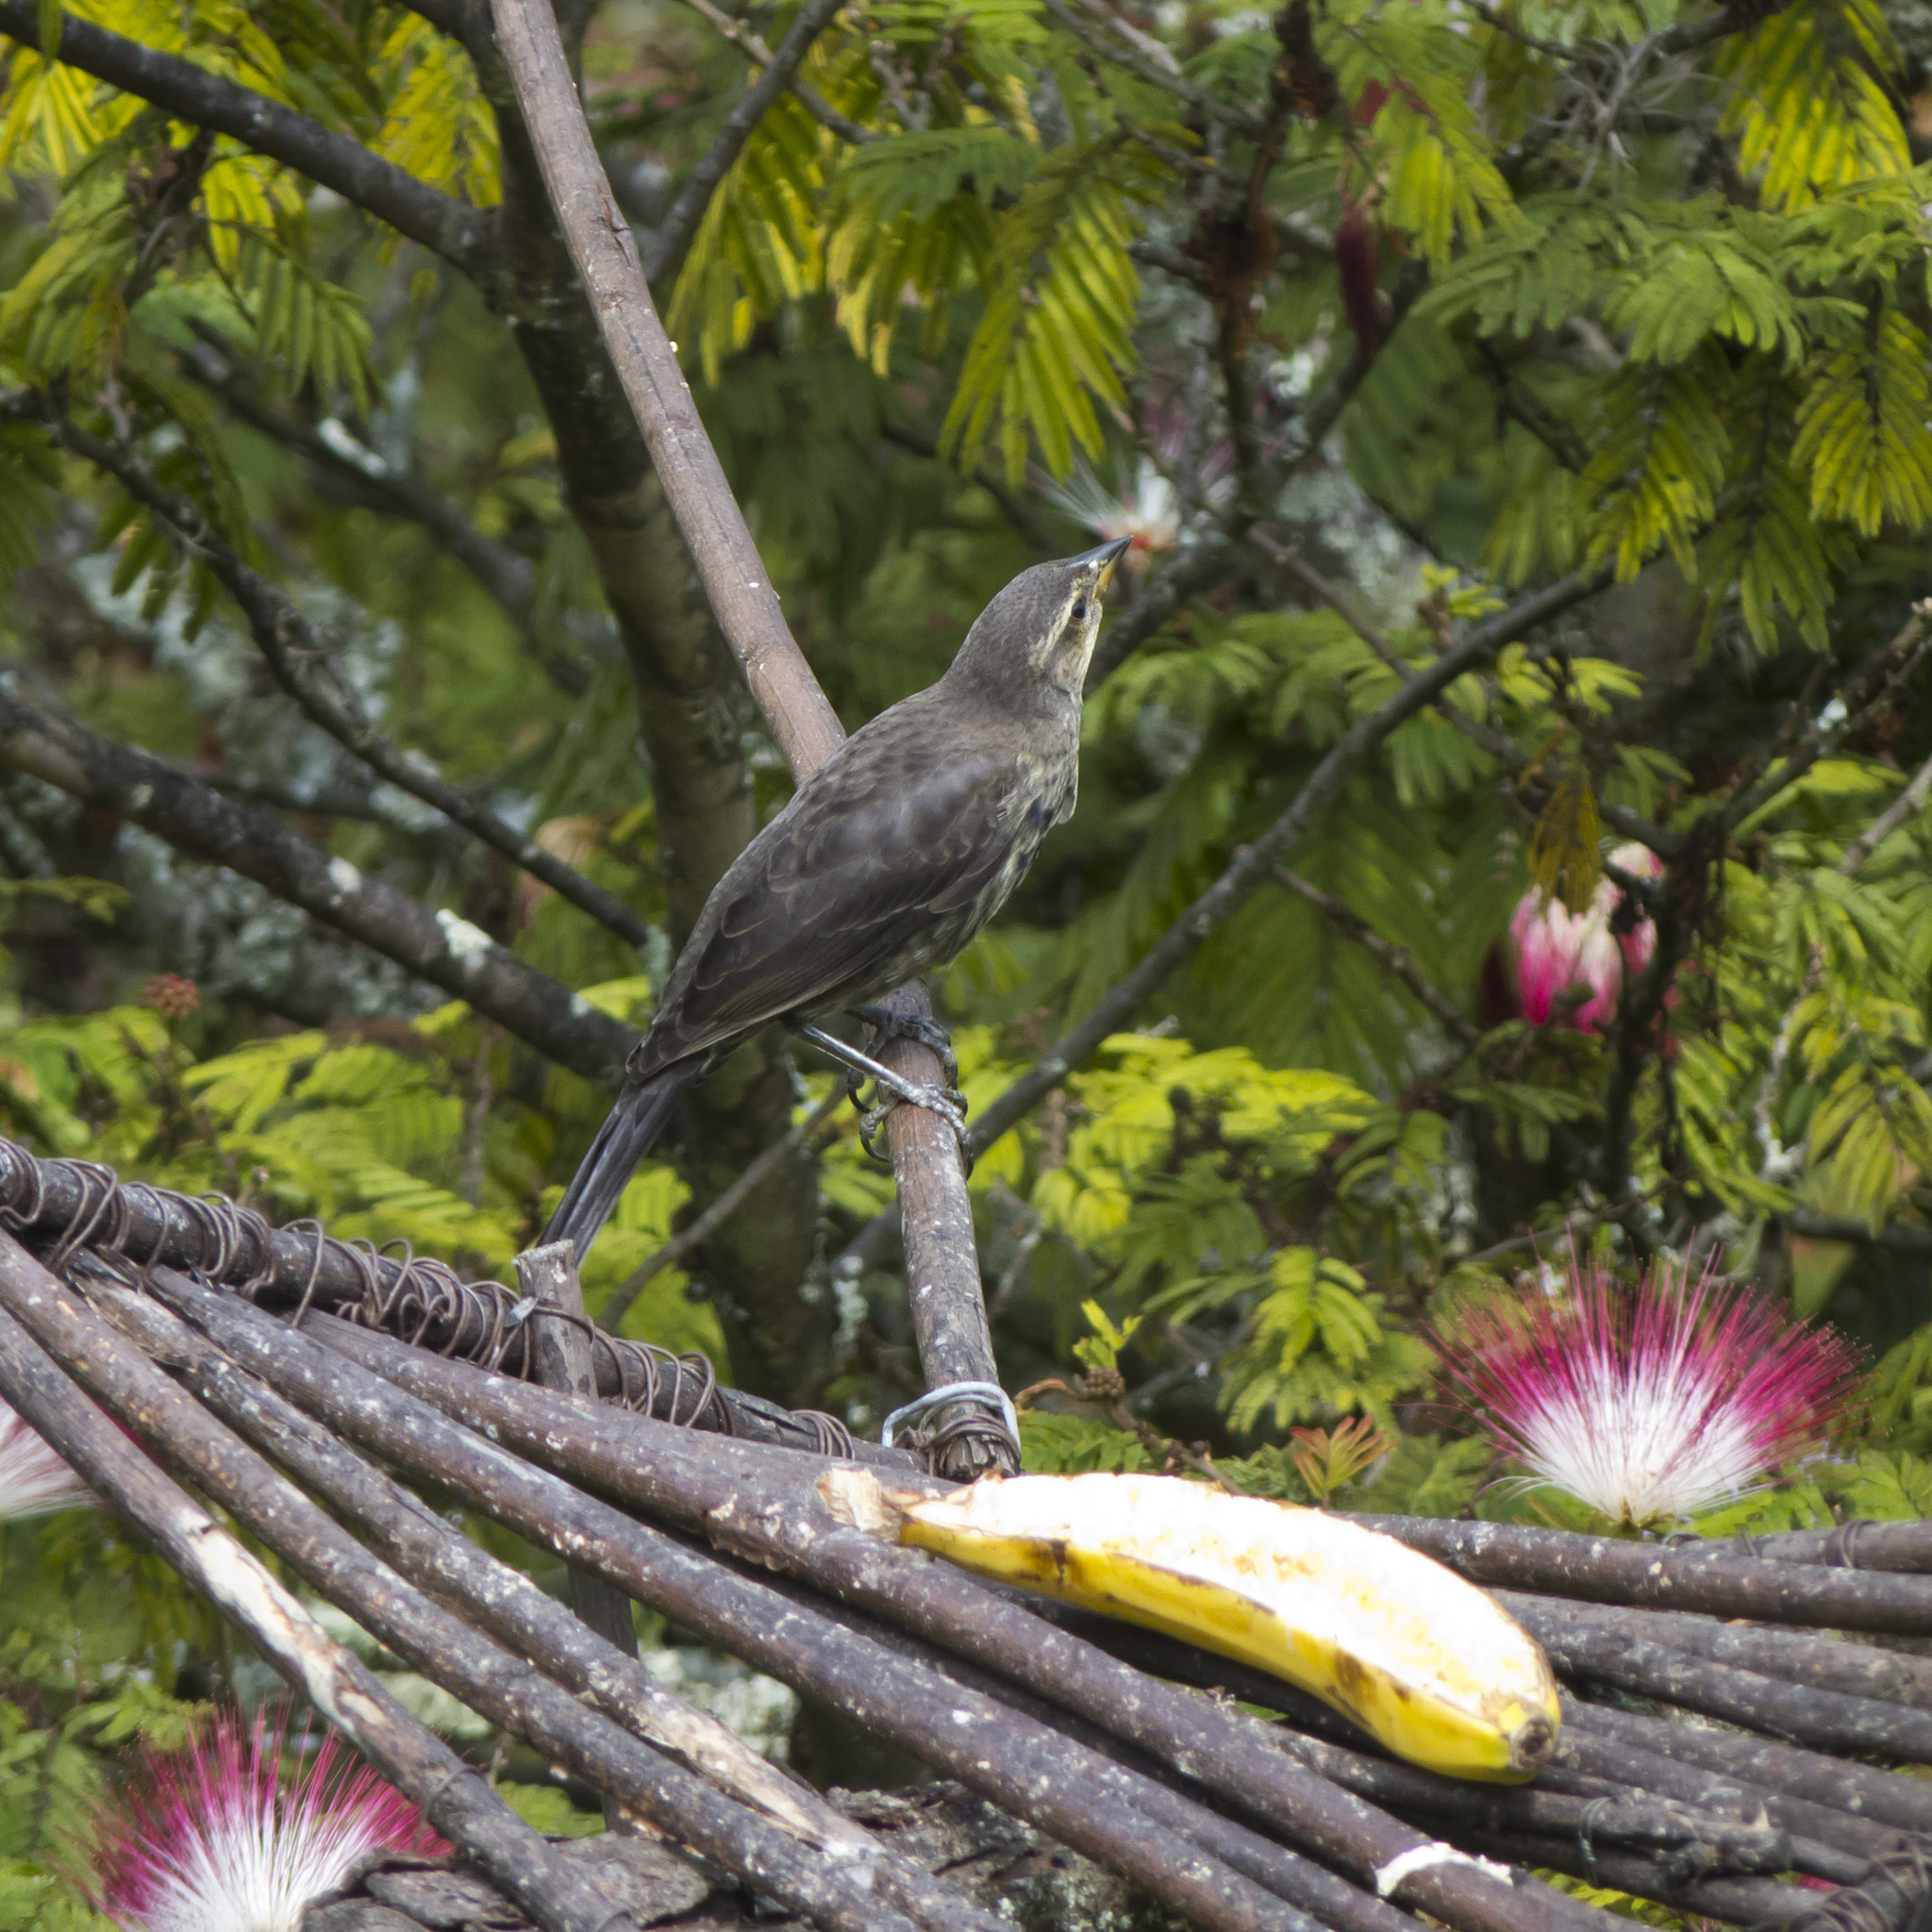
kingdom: Animalia
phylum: Chordata
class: Aves
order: Passeriformes
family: Icteridae
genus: Molothrus
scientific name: Molothrus bonariensis
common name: Shiny cowbird
